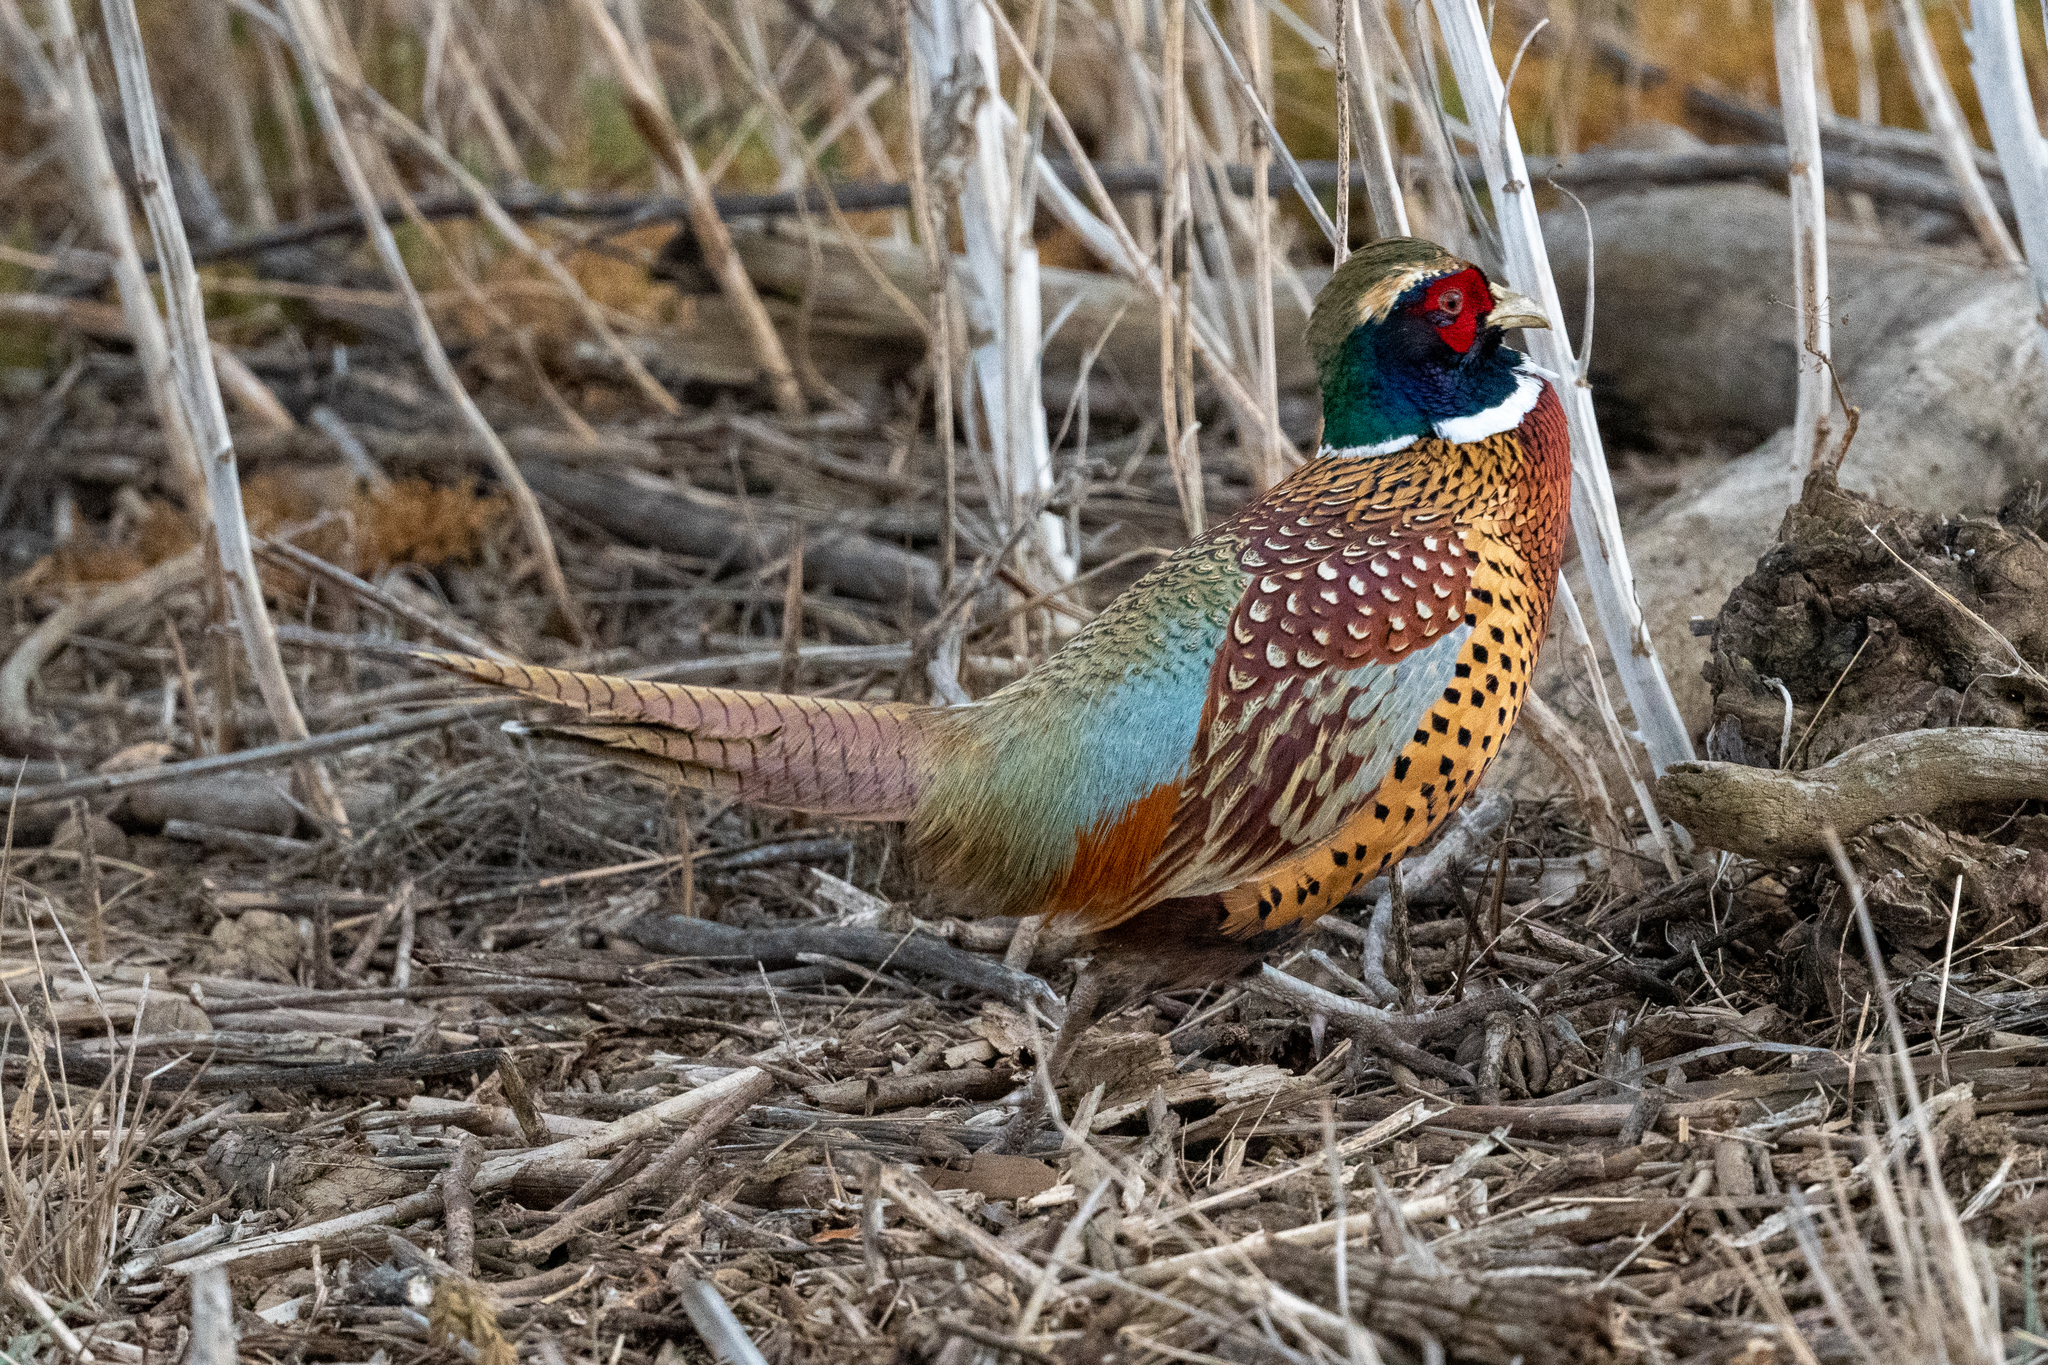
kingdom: Animalia
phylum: Chordata
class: Aves
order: Galliformes
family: Phasianidae
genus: Phasianus
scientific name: Phasianus colchicus
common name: Common pheasant
